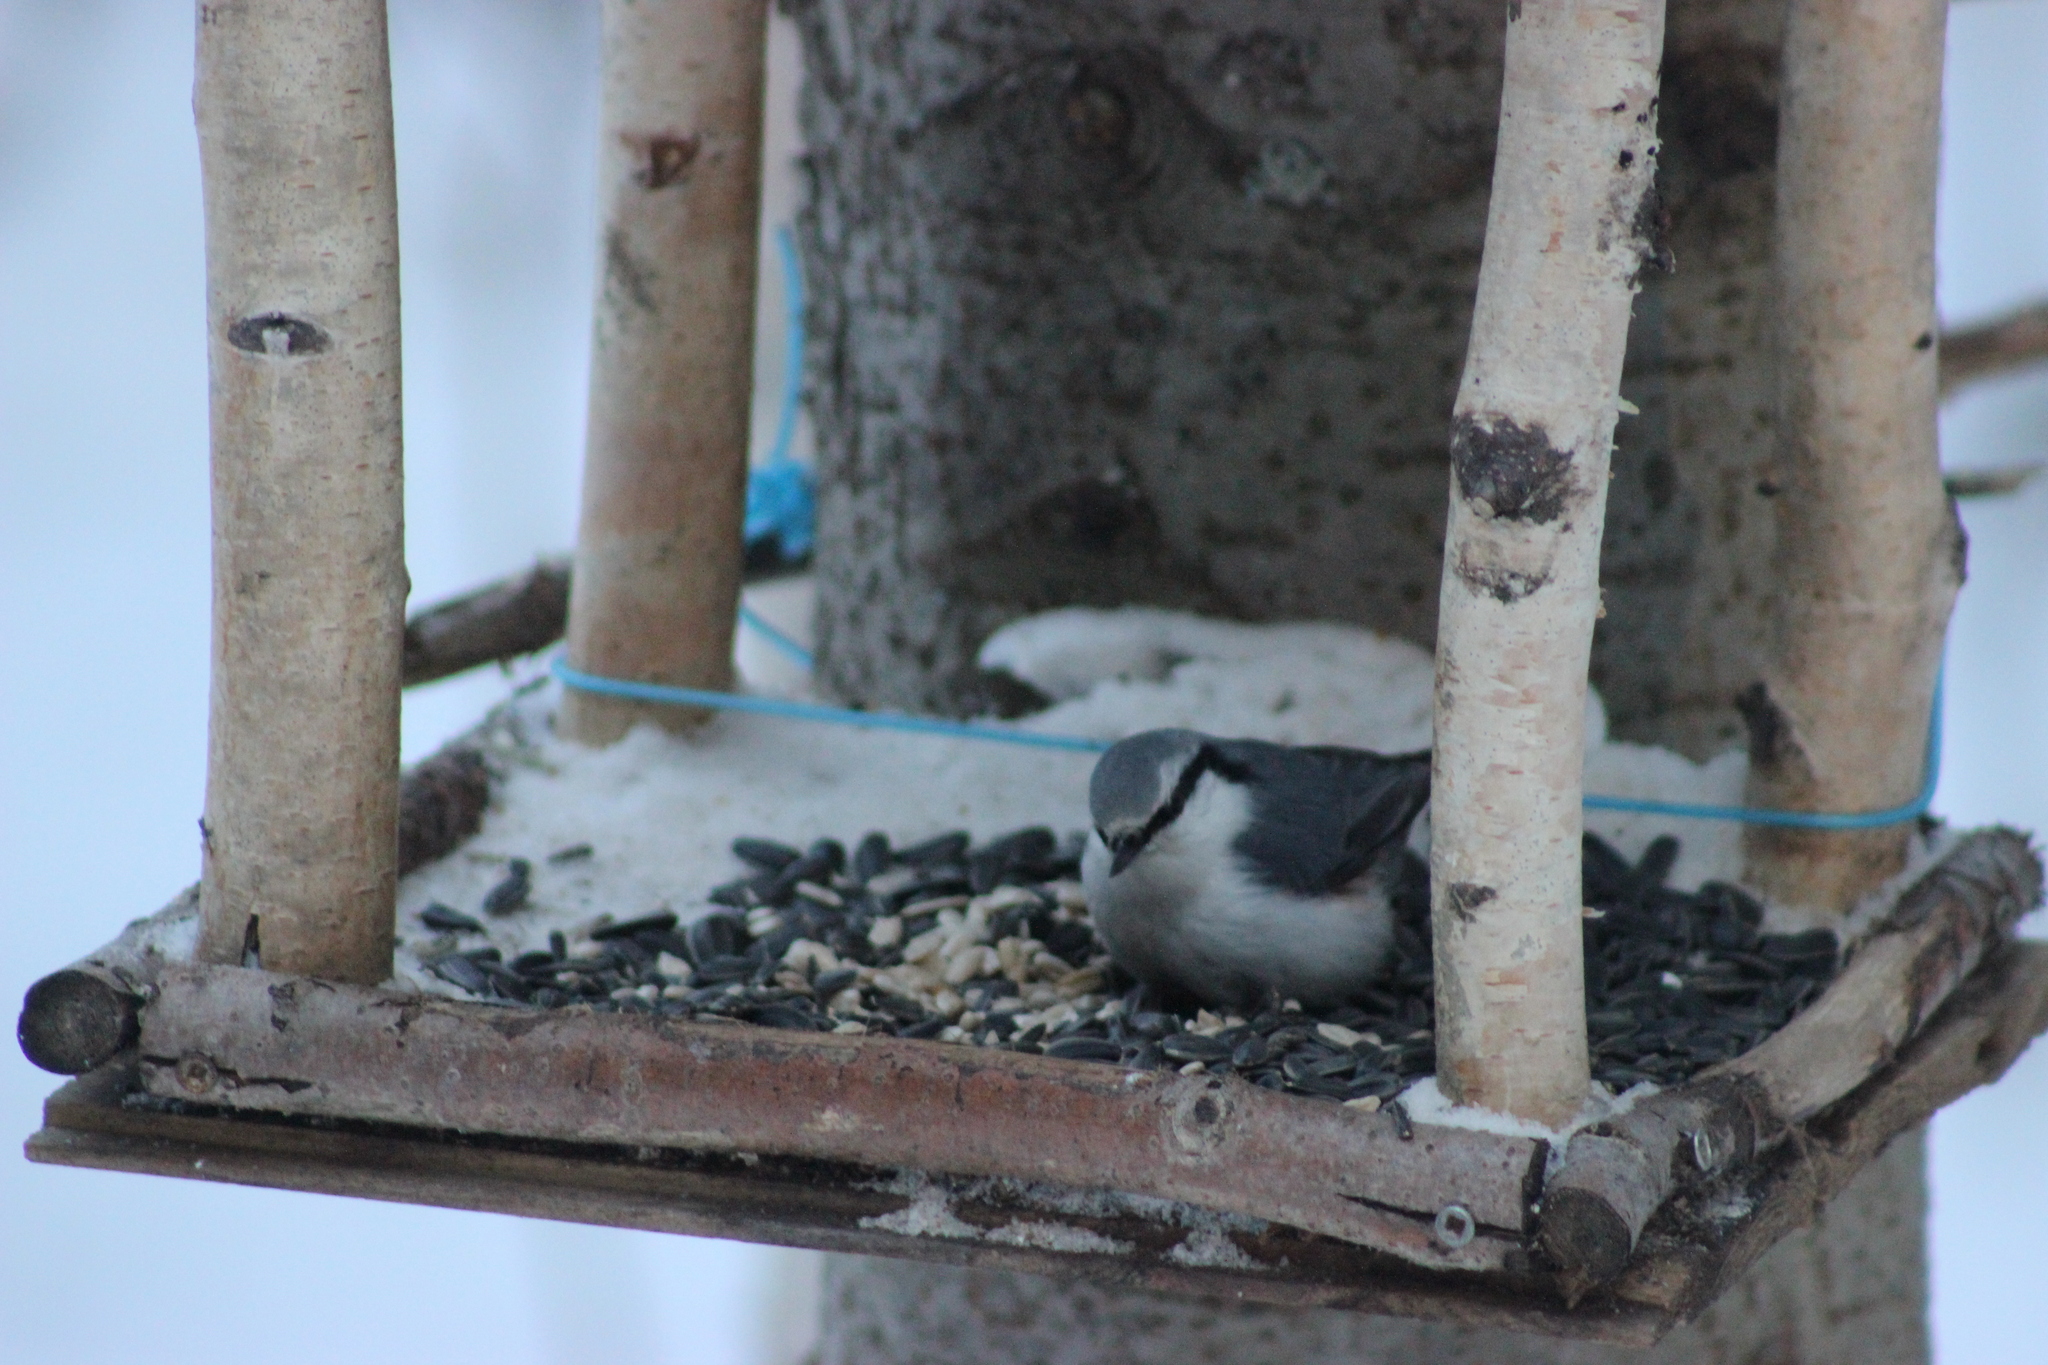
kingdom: Animalia
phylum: Chordata
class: Aves
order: Passeriformes
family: Sittidae
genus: Sitta
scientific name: Sitta europaea
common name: Eurasian nuthatch
